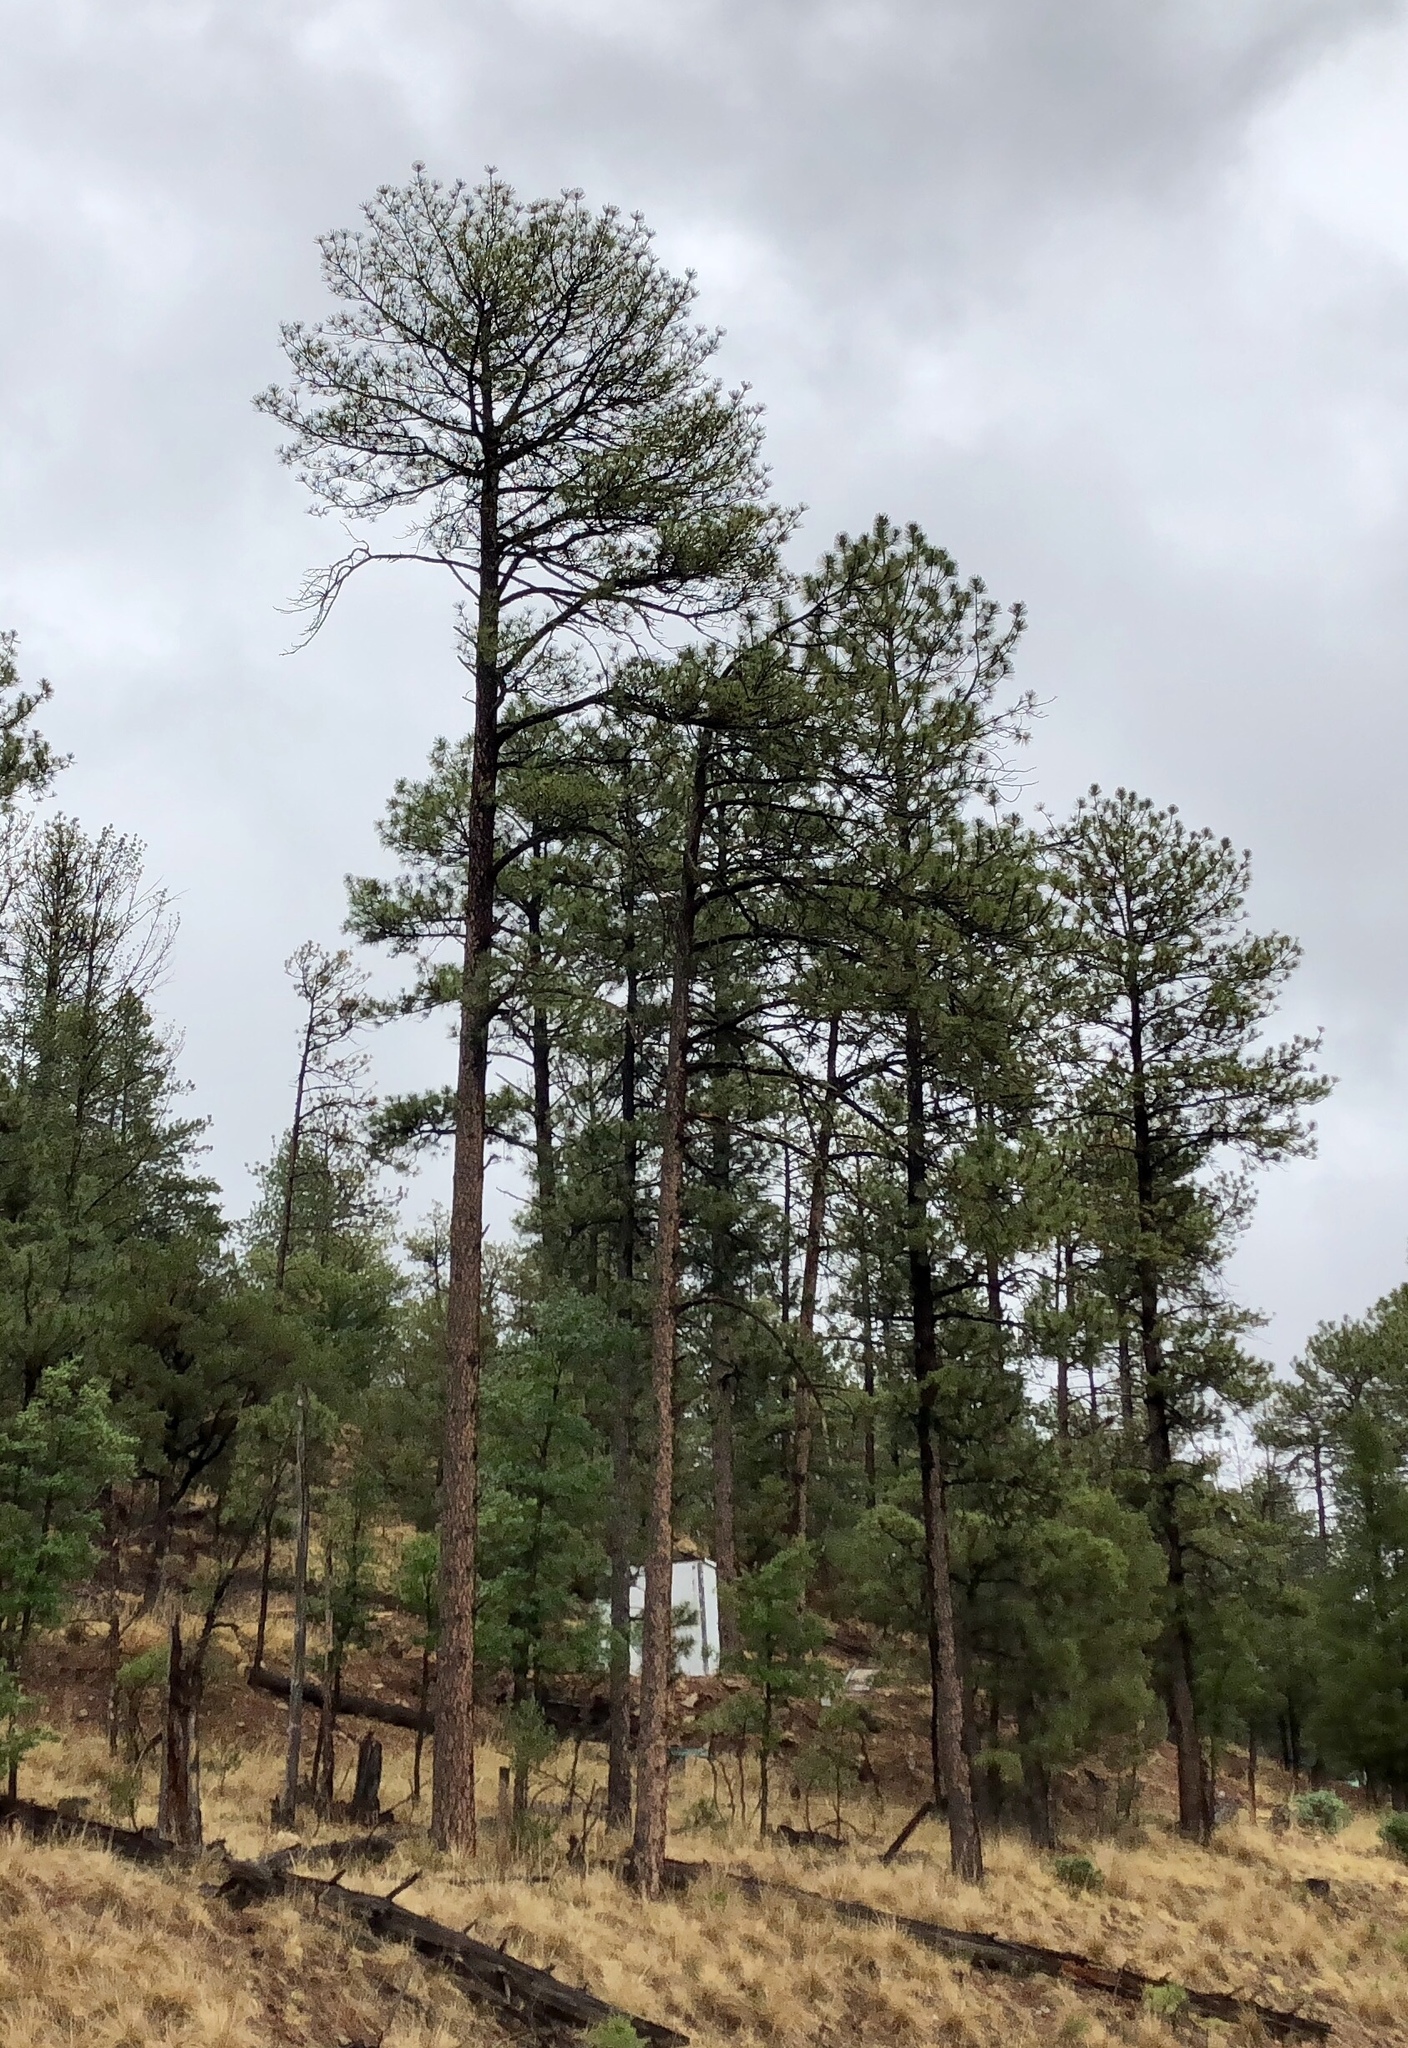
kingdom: Plantae
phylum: Tracheophyta
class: Pinopsida
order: Pinales
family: Pinaceae
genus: Pinus
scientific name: Pinus ponderosa
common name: Western yellow-pine
